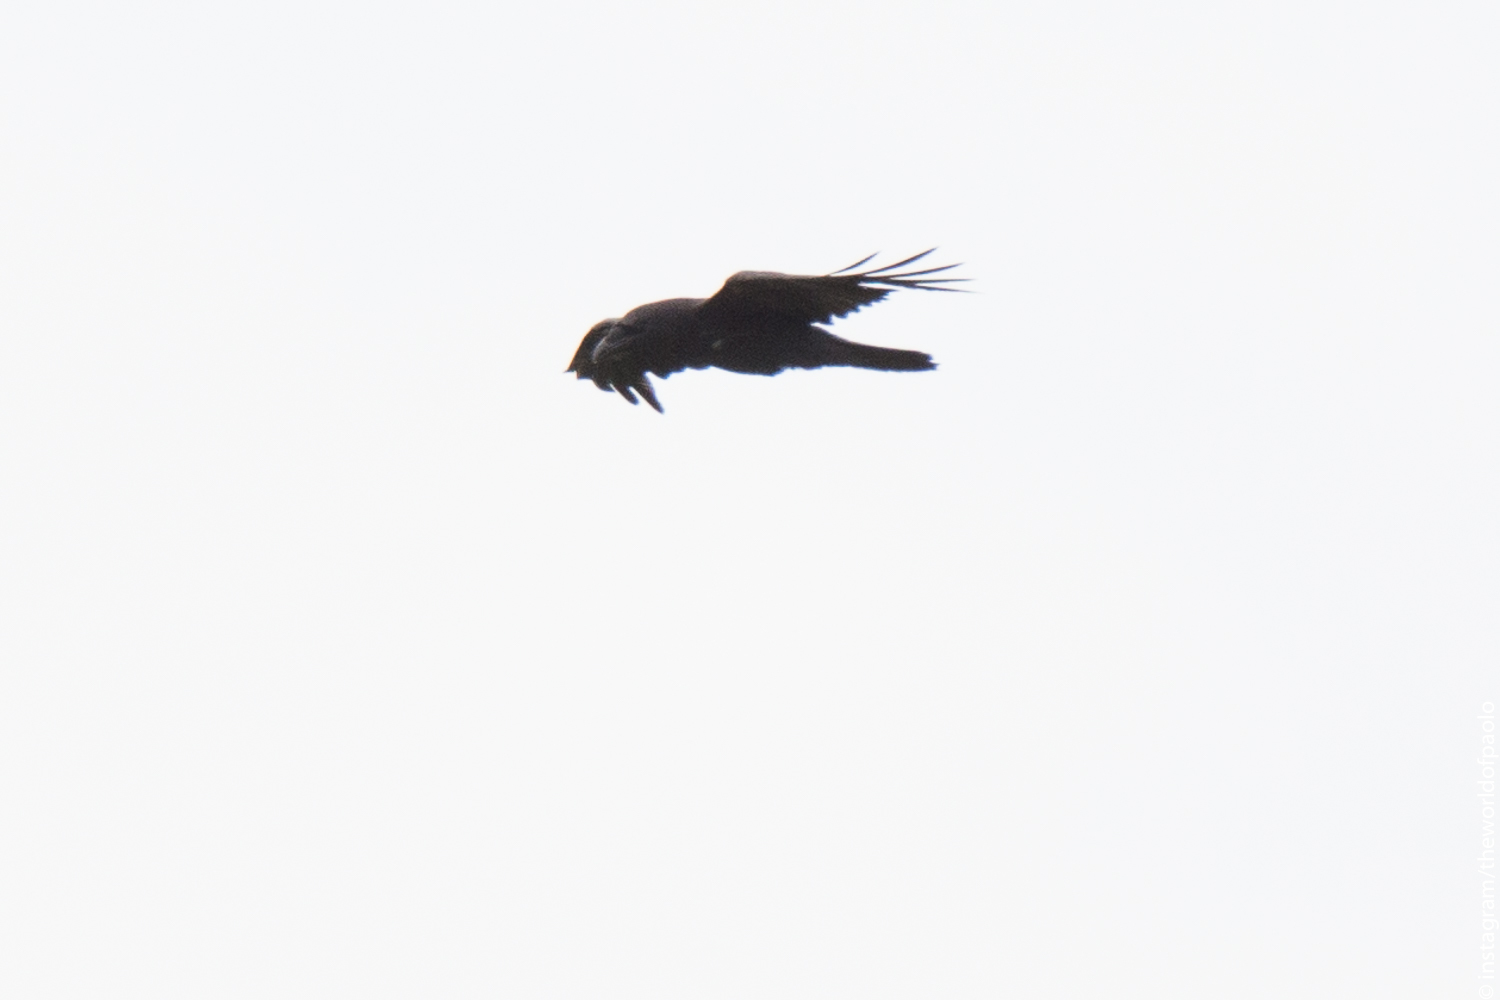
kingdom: Animalia
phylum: Chordata
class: Aves
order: Passeriformes
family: Corvidae
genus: Corvus
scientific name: Corvus corax
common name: Common raven
